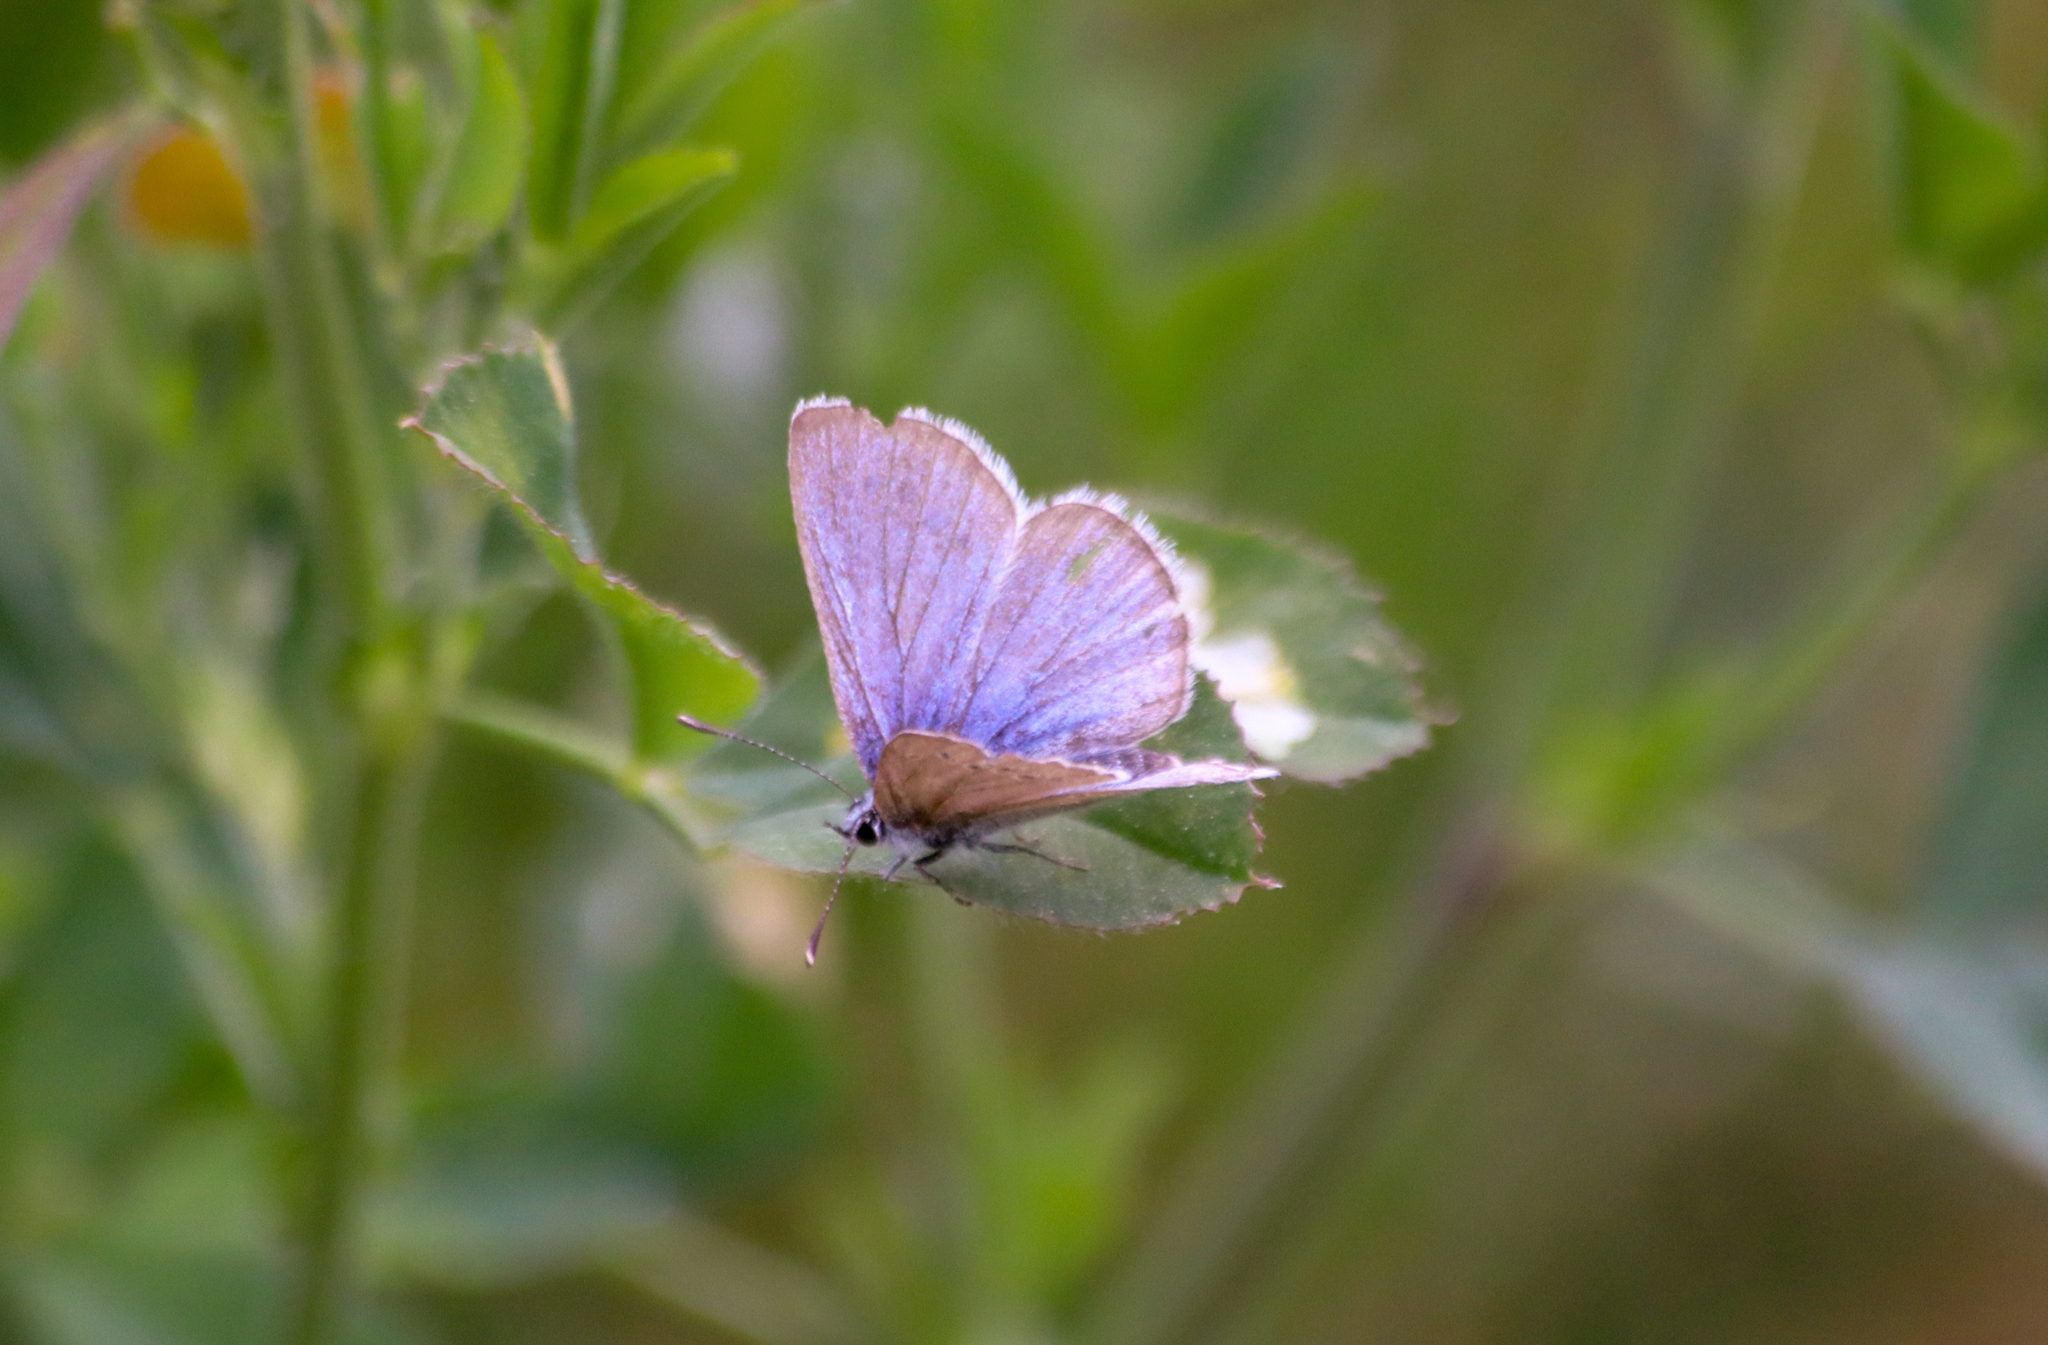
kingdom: Animalia
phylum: Arthropoda
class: Insecta
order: Lepidoptera
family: Lycaenidae
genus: Glaucopsyche
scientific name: Glaucopsyche lygdamus
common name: Silvery blue
